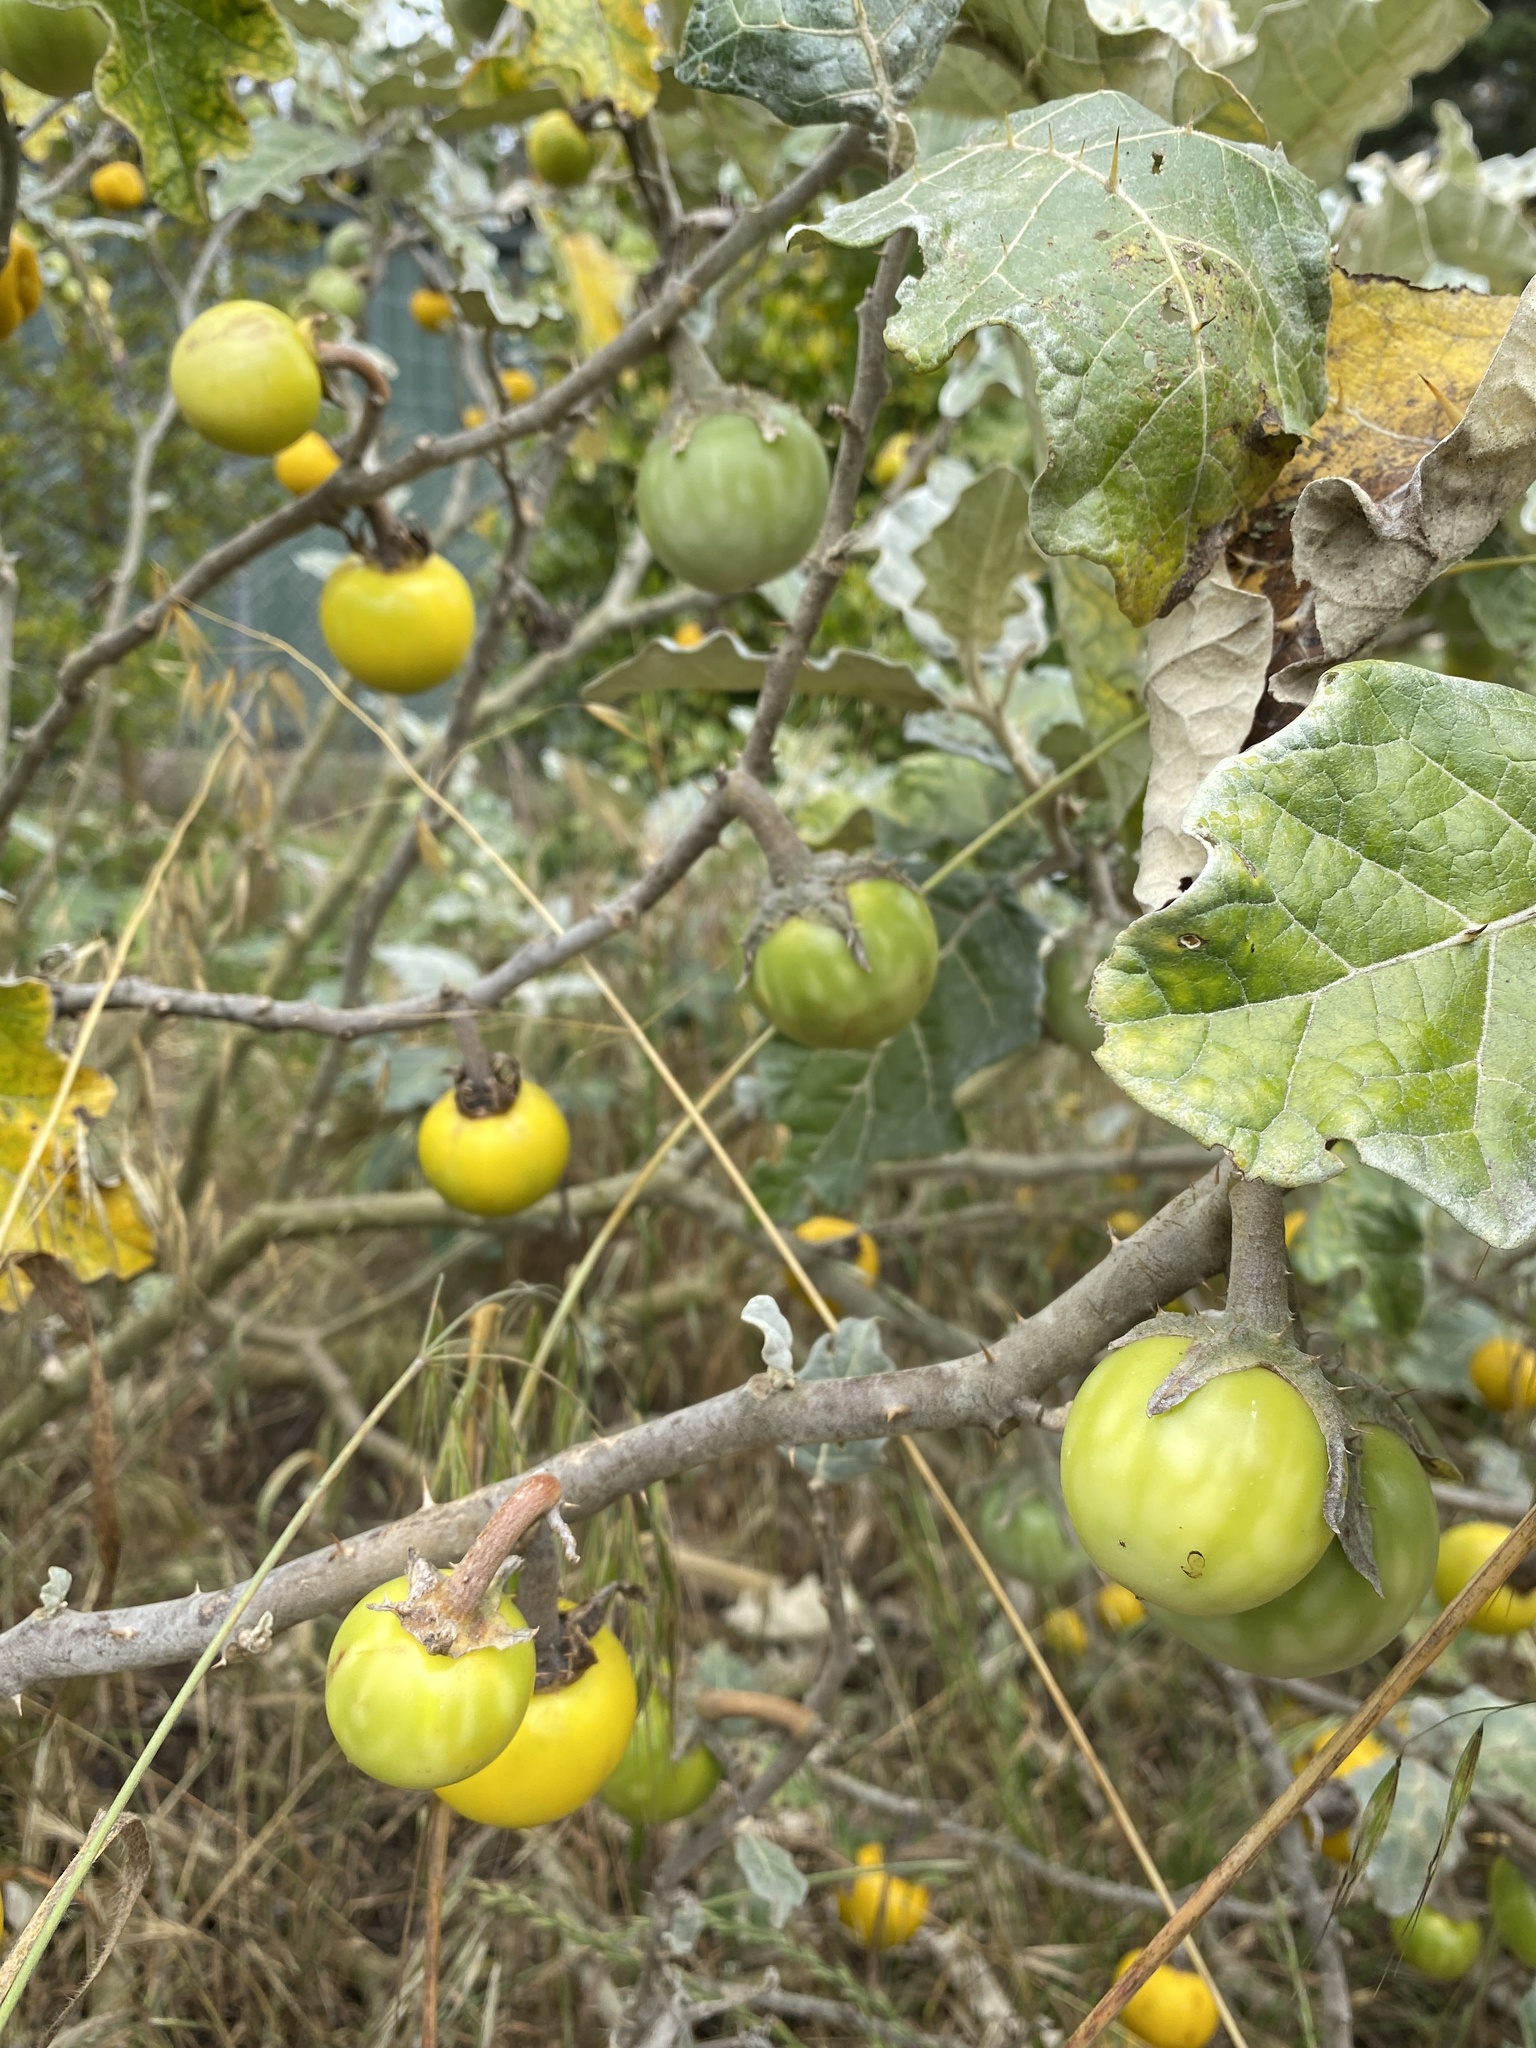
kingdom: Plantae
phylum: Tracheophyta
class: Magnoliopsida
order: Solanales
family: Solanaceae
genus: Solanum
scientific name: Solanum marginatum
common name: Purple african nightshade
